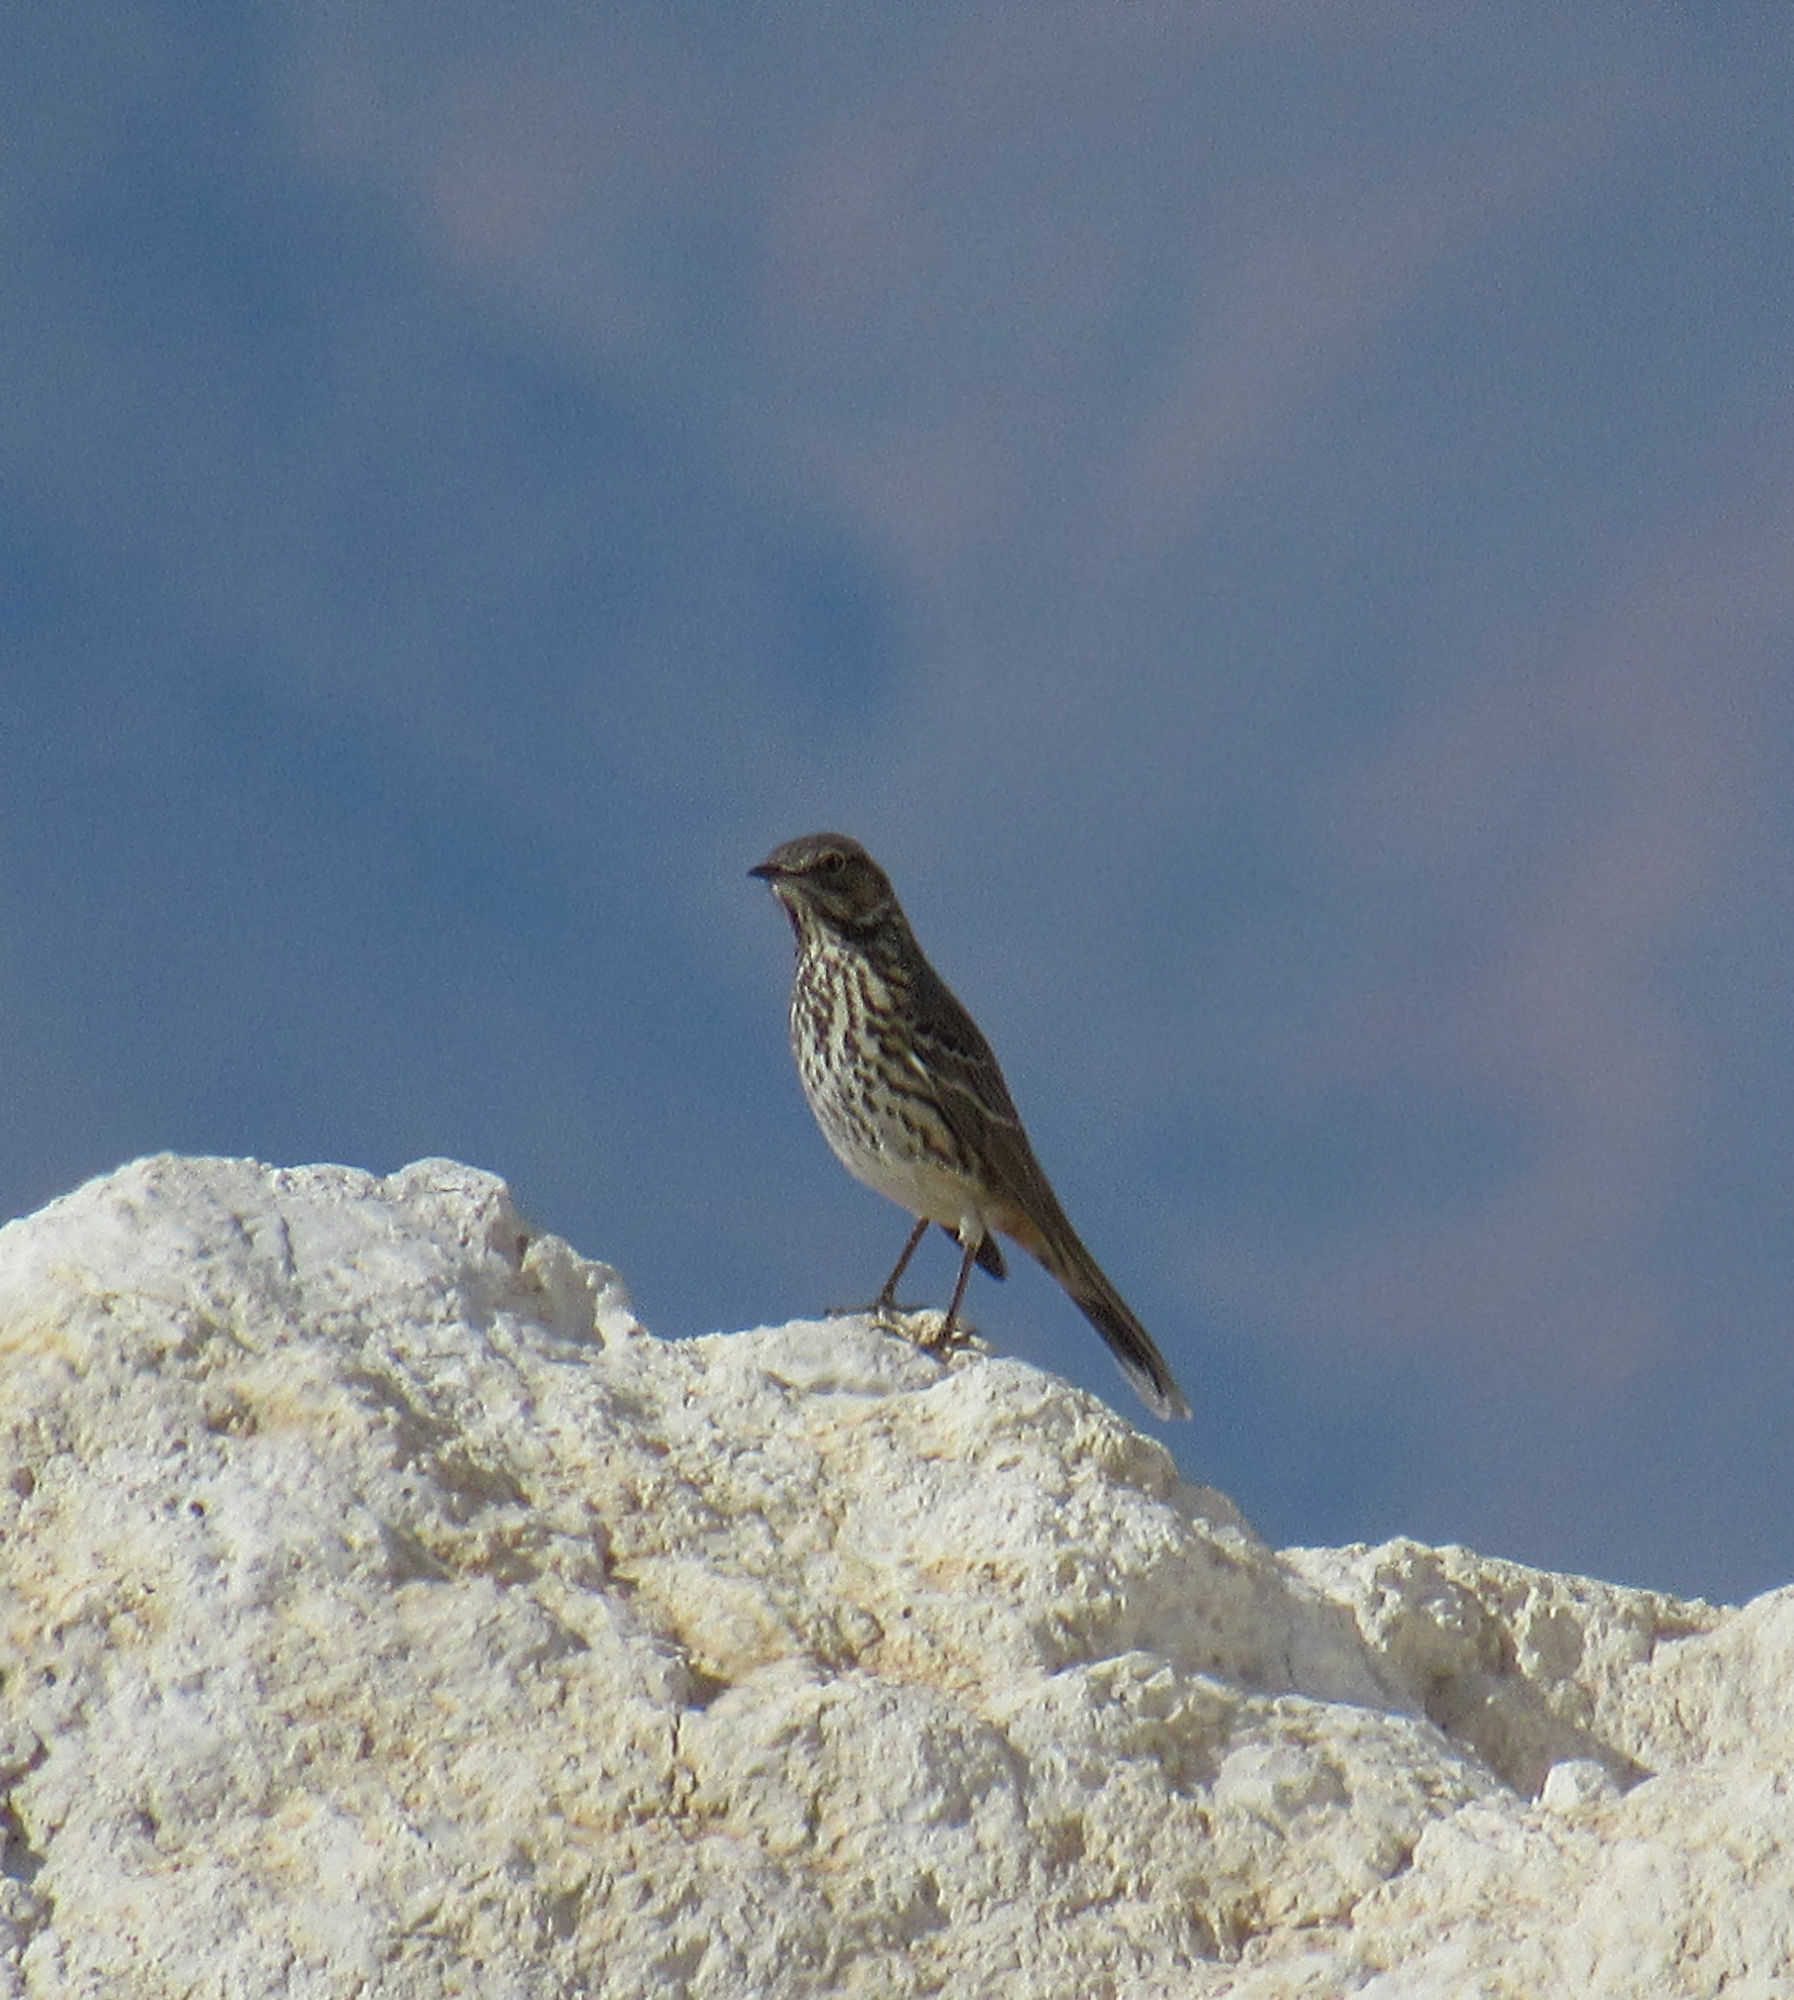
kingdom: Animalia
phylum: Chordata
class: Aves
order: Passeriformes
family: Mimidae
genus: Oreoscoptes
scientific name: Oreoscoptes montanus
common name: Sage thrasher
